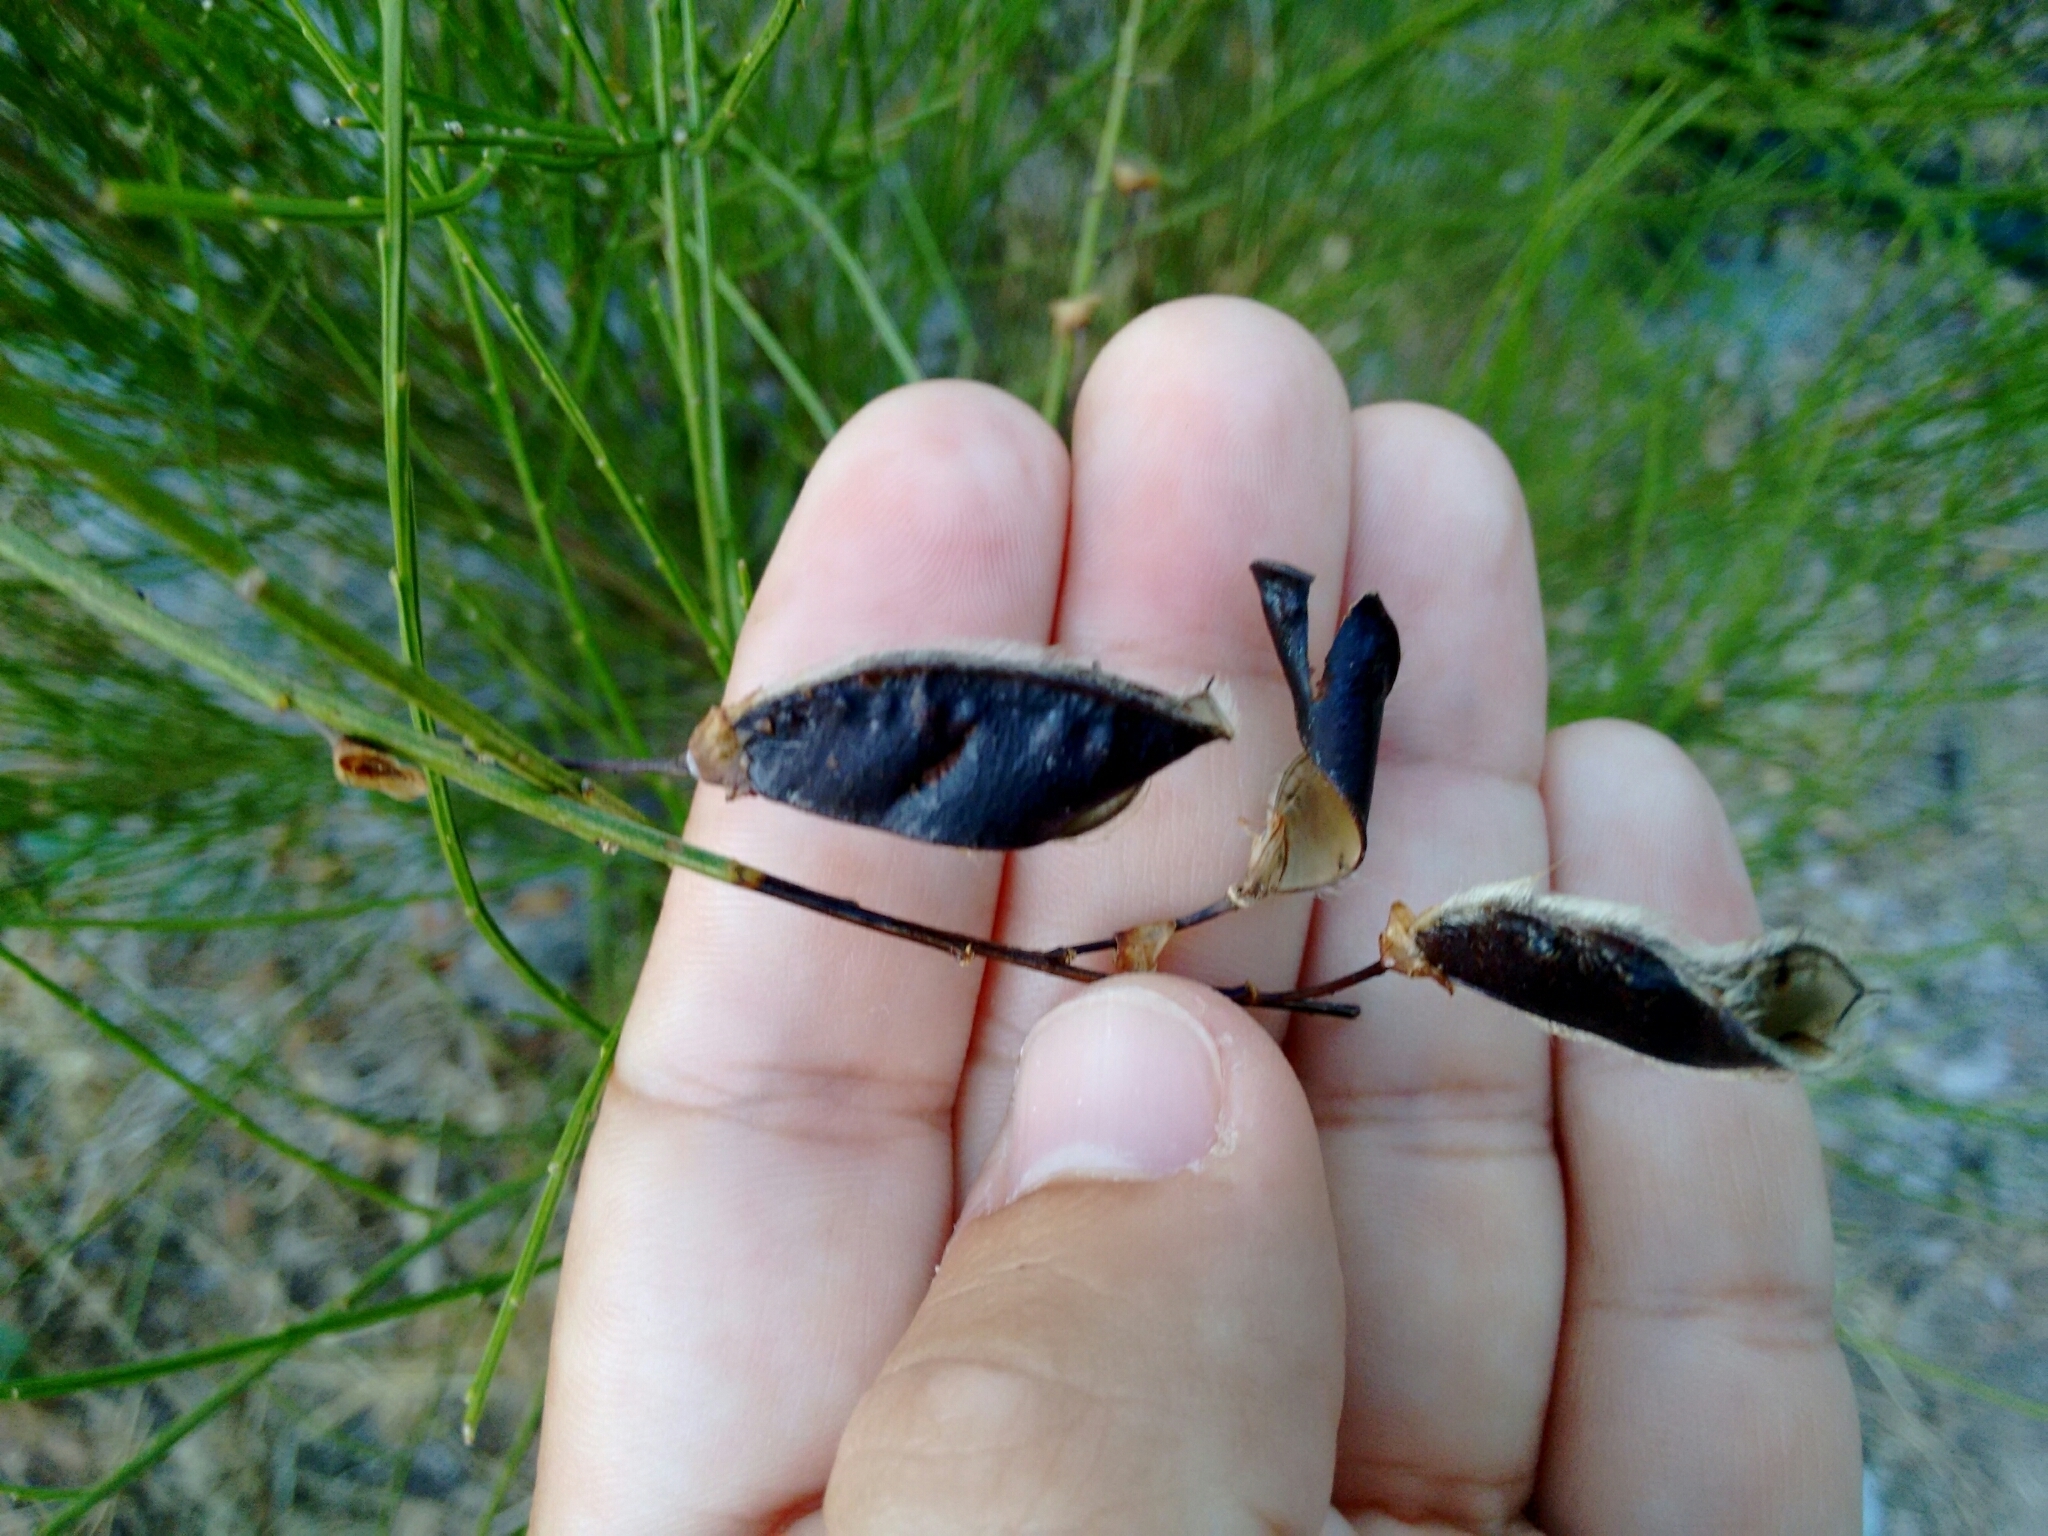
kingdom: Plantae
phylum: Tracheophyta
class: Magnoliopsida
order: Fabales
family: Fabaceae
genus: Cytisus
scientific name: Cytisus scoparius
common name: Scotch broom
